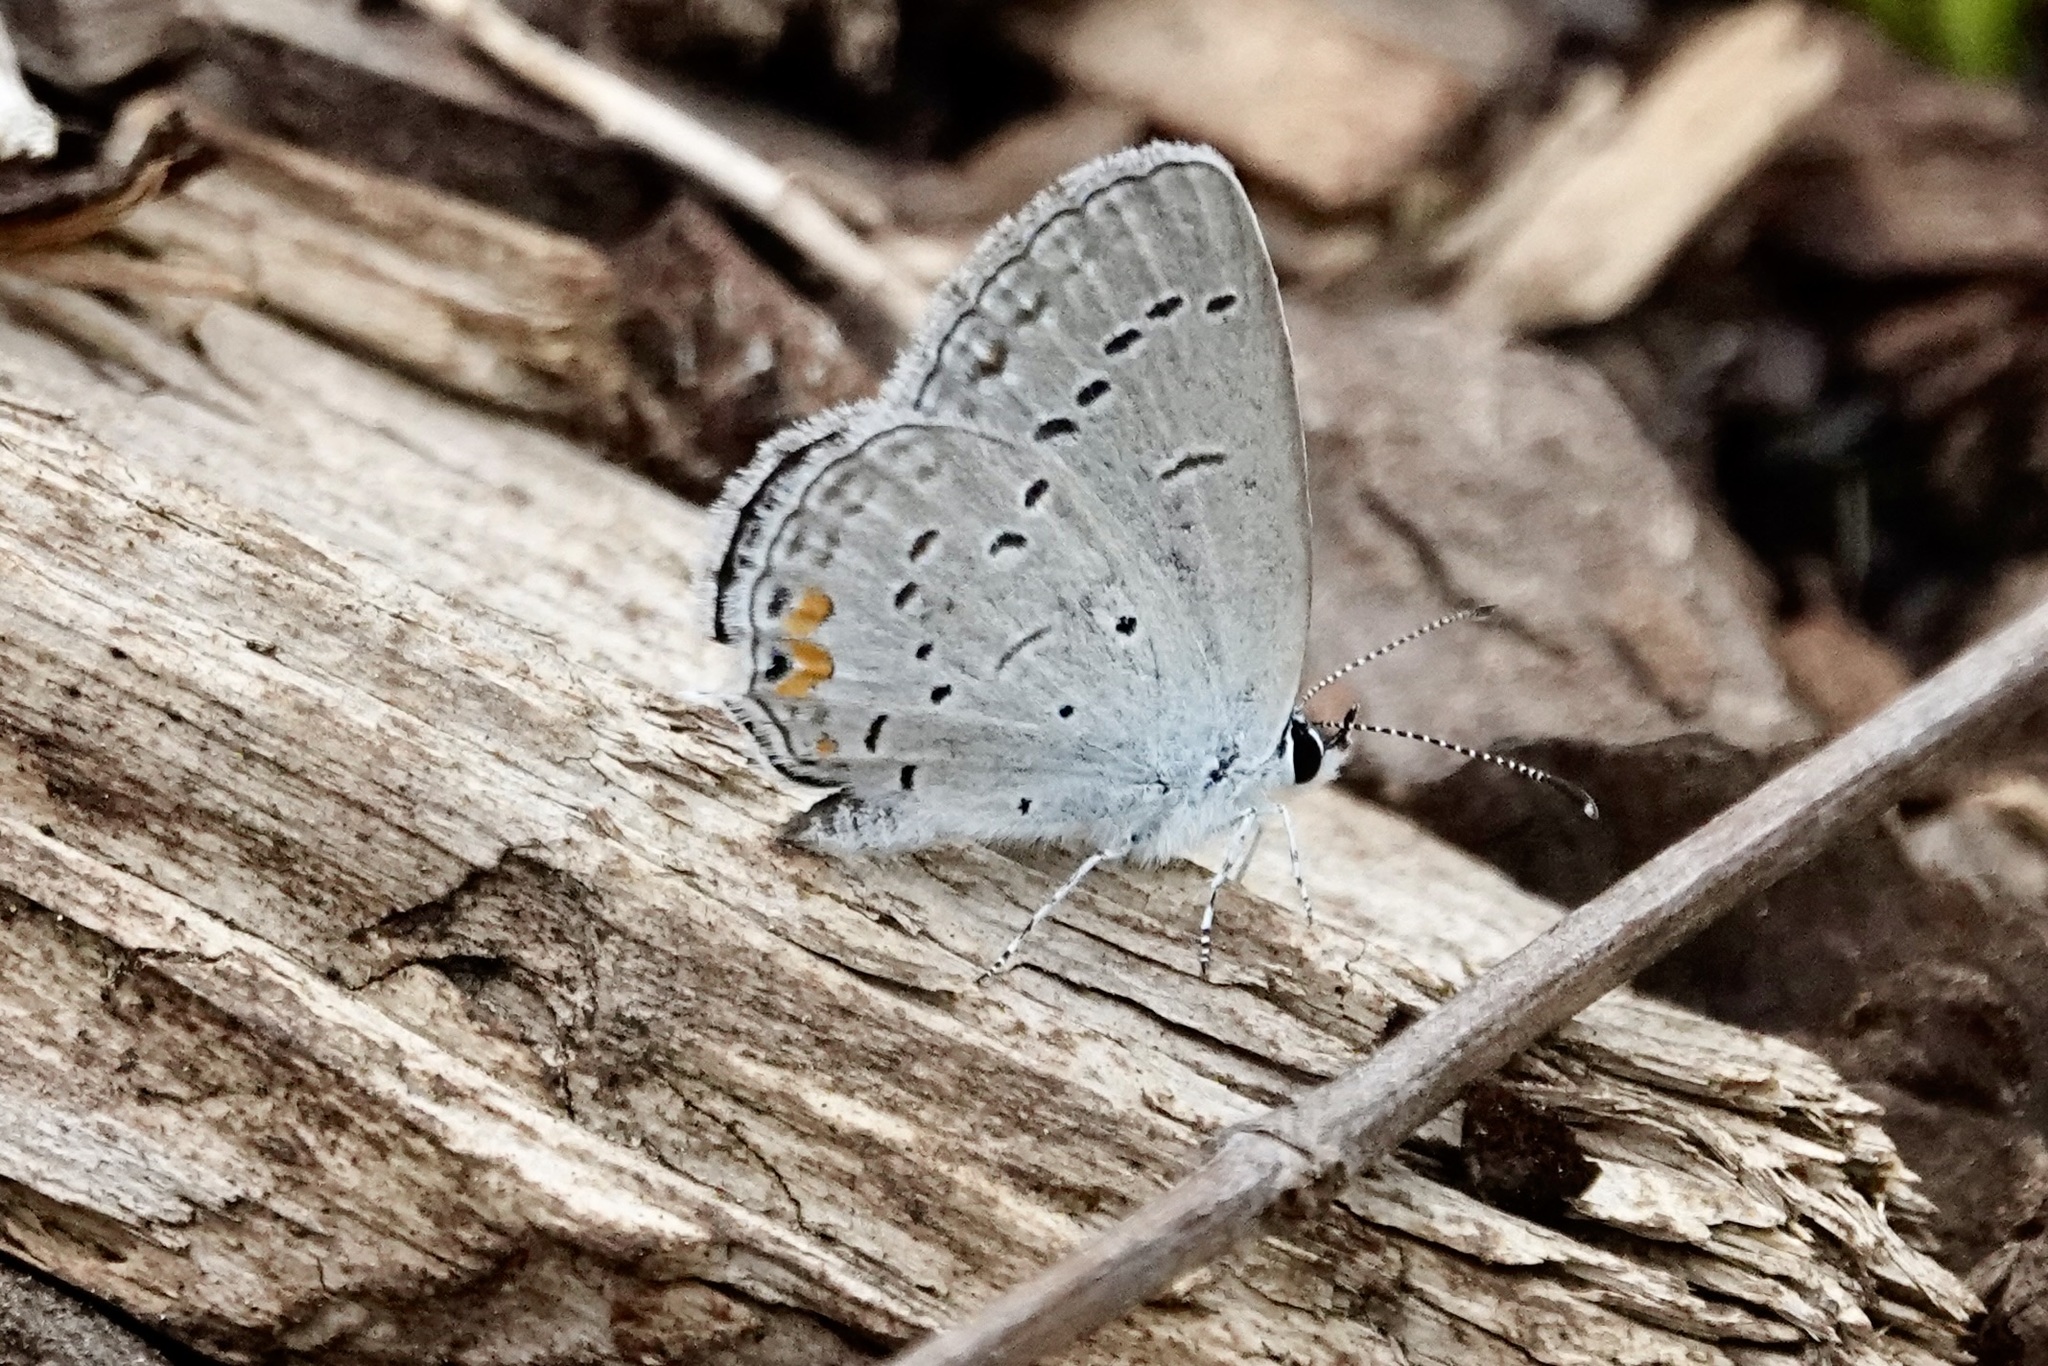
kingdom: Animalia
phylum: Arthropoda
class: Insecta
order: Lepidoptera
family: Lycaenidae
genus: Elkalyce
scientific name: Elkalyce comyntas
